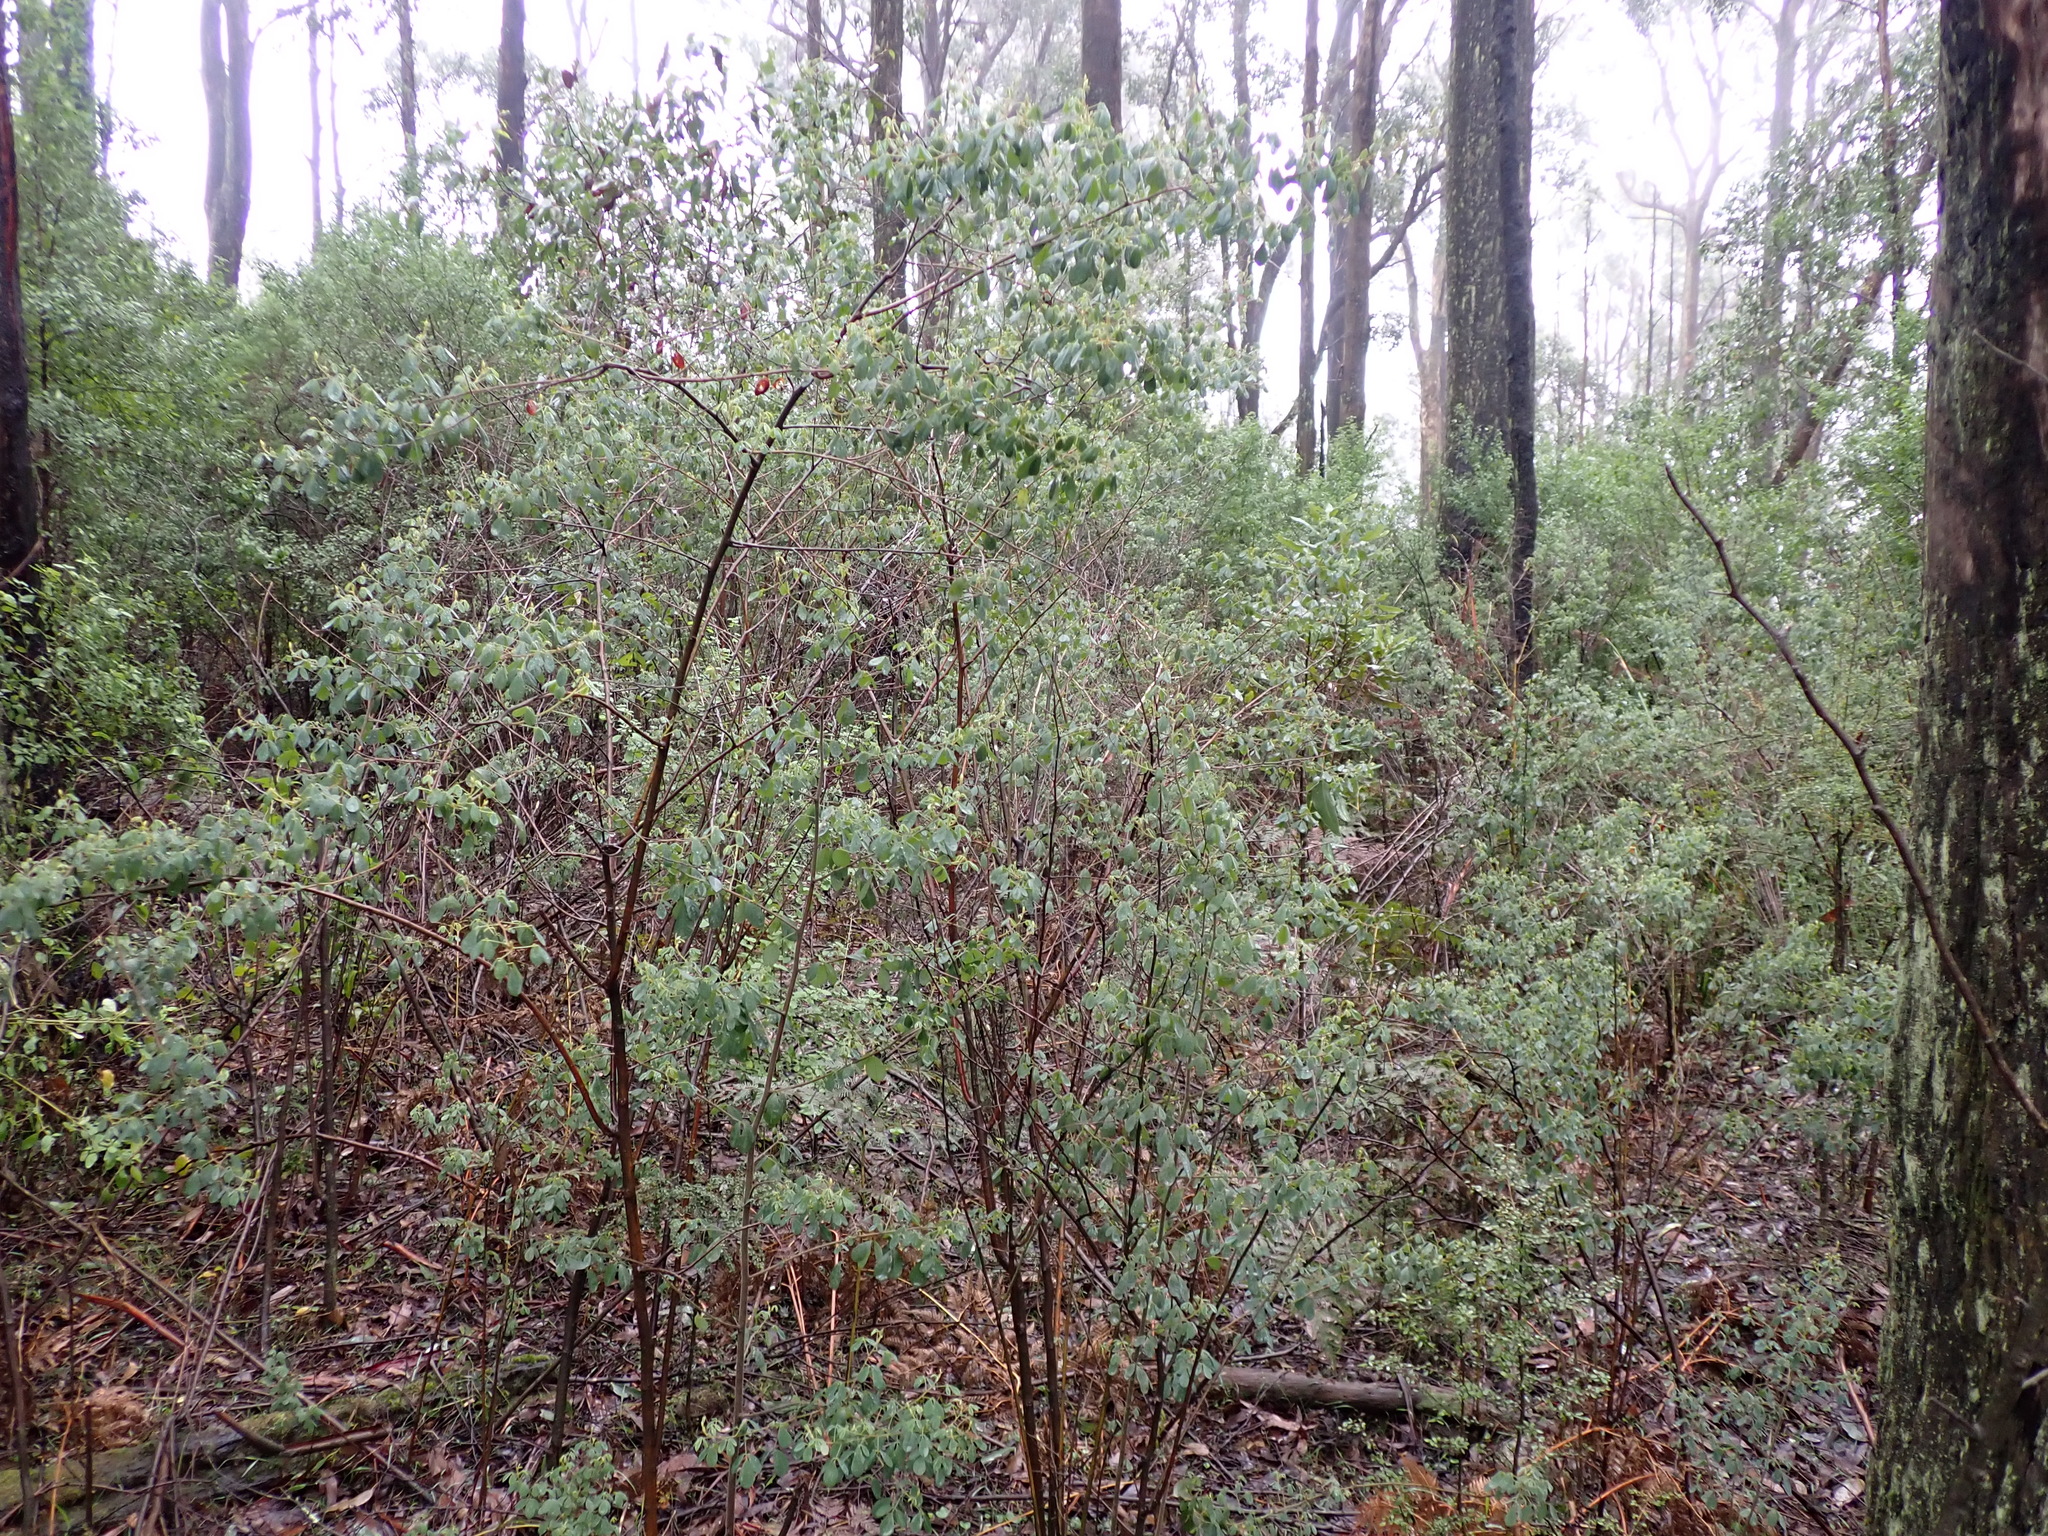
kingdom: Plantae
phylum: Tracheophyta
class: Magnoliopsida
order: Fabales
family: Fabaceae
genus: Goodia
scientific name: Goodia pubescens
